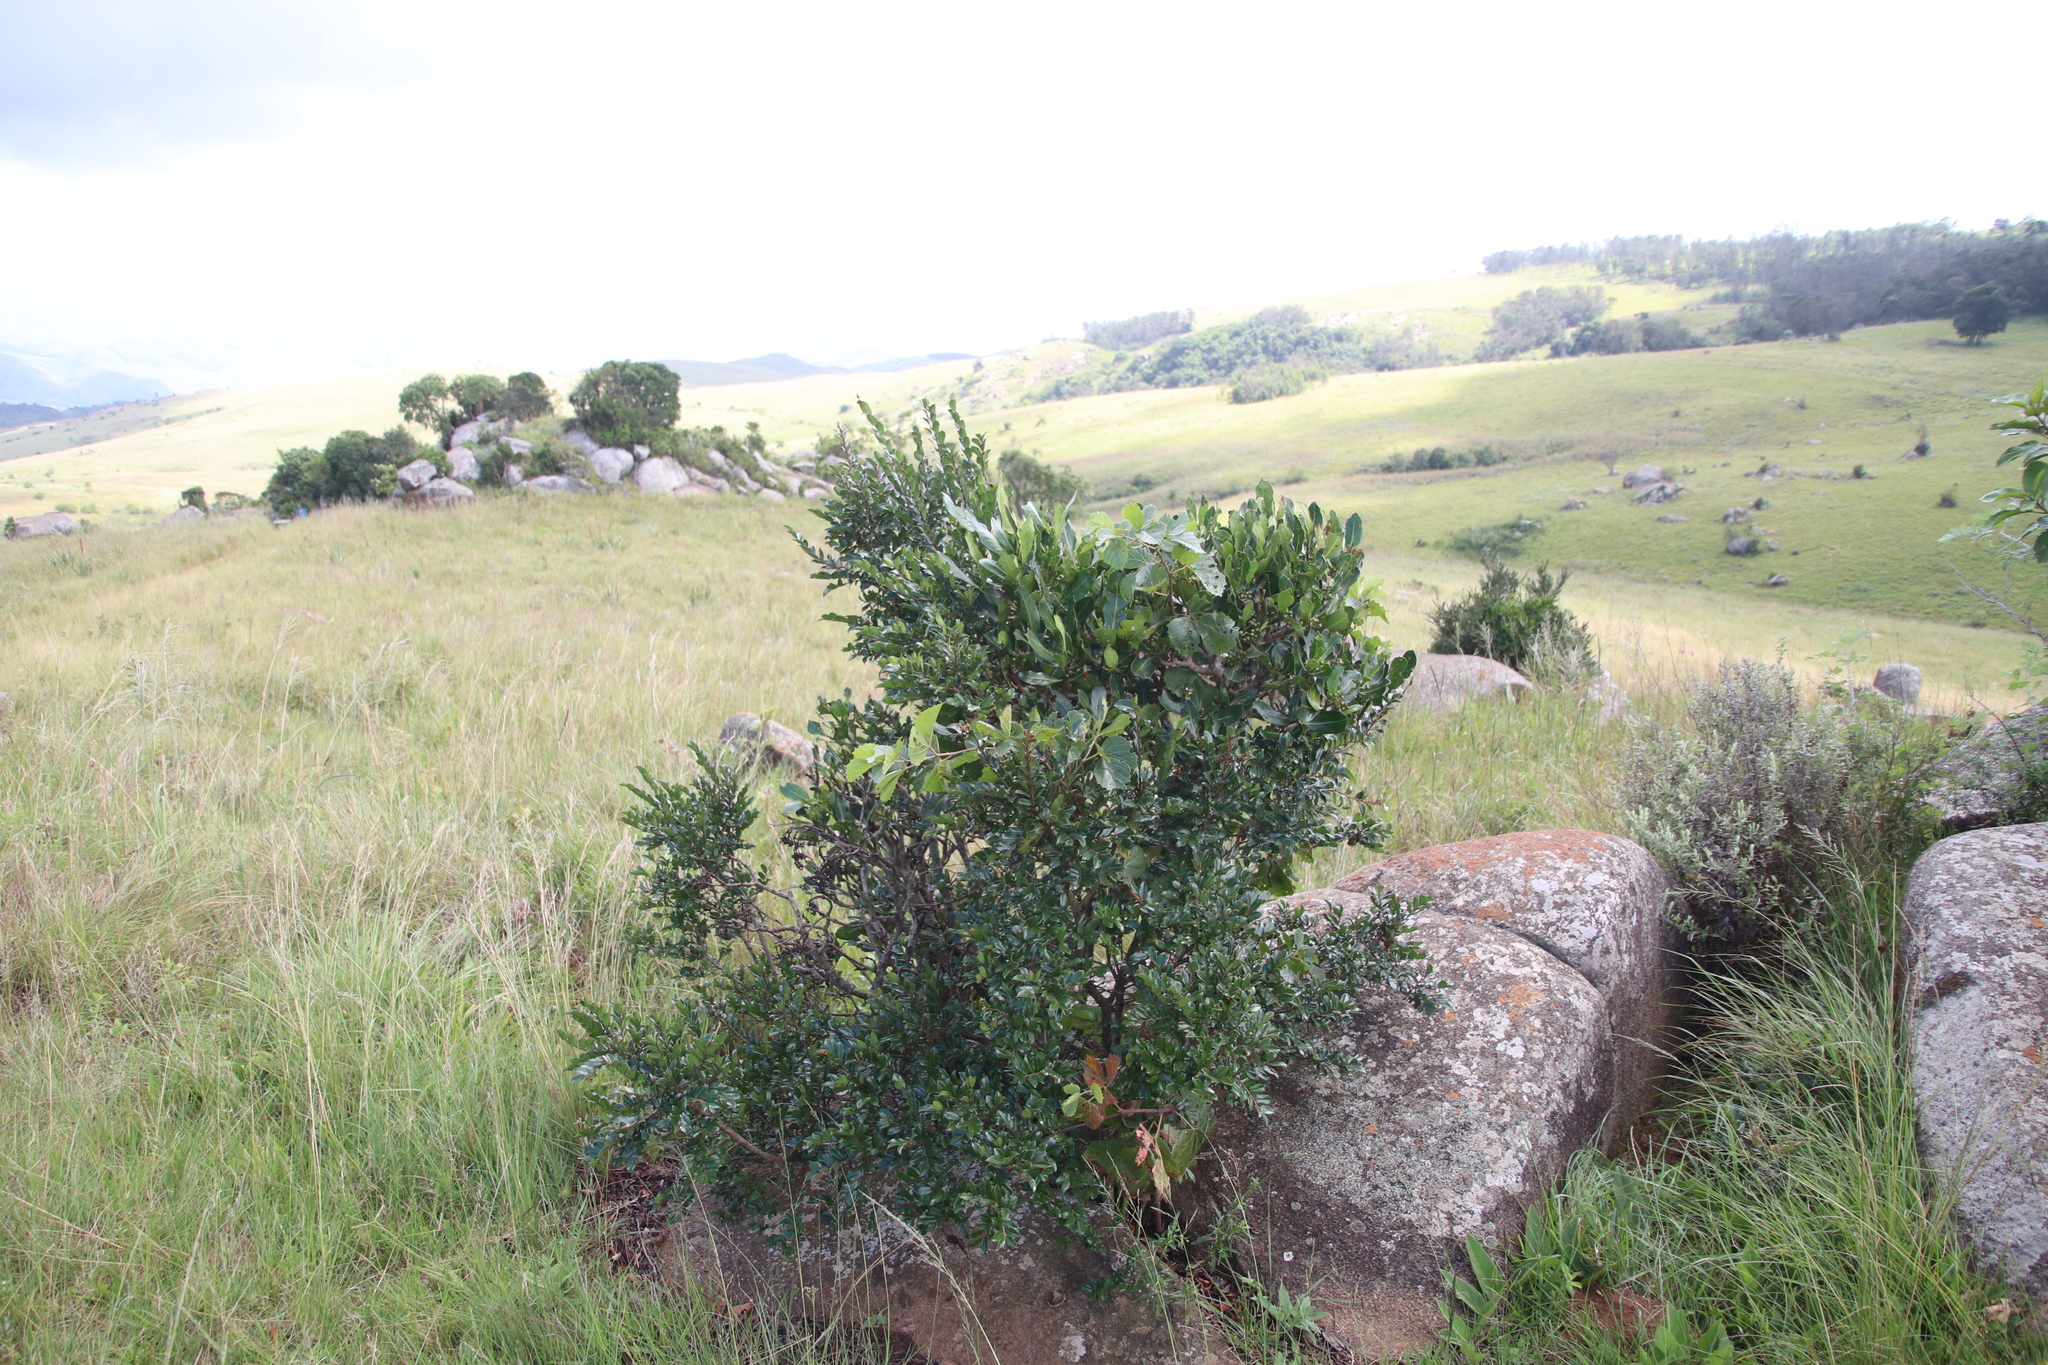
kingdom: Plantae
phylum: Tracheophyta
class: Magnoliopsida
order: Ericales
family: Ebenaceae
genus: Diospyros
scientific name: Diospyros whyteana
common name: Bladder-nut
